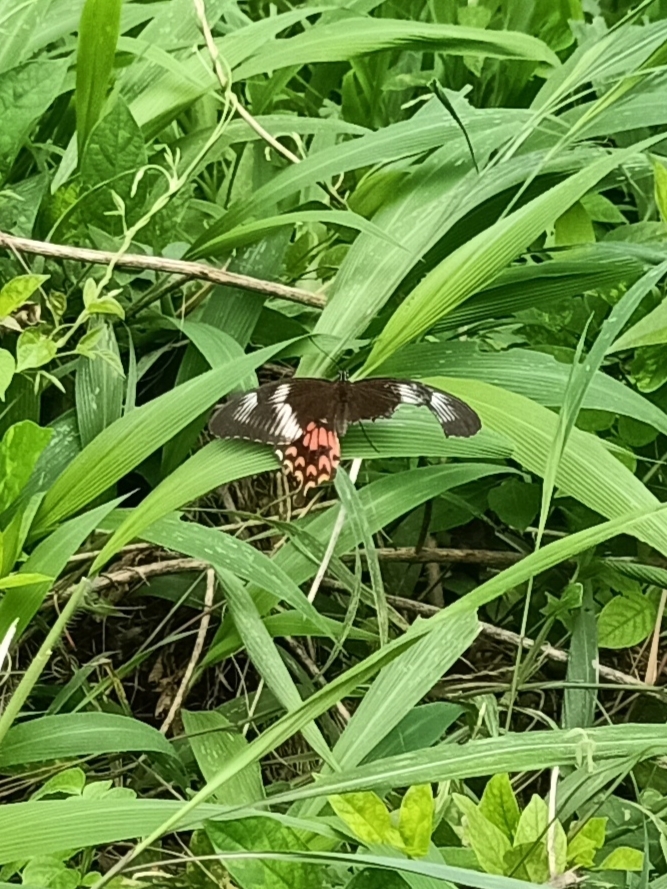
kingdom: Animalia
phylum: Arthropoda
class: Insecta
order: Lepidoptera
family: Papilionidae
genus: Papilio
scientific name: Papilio polytes
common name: Common mormon
